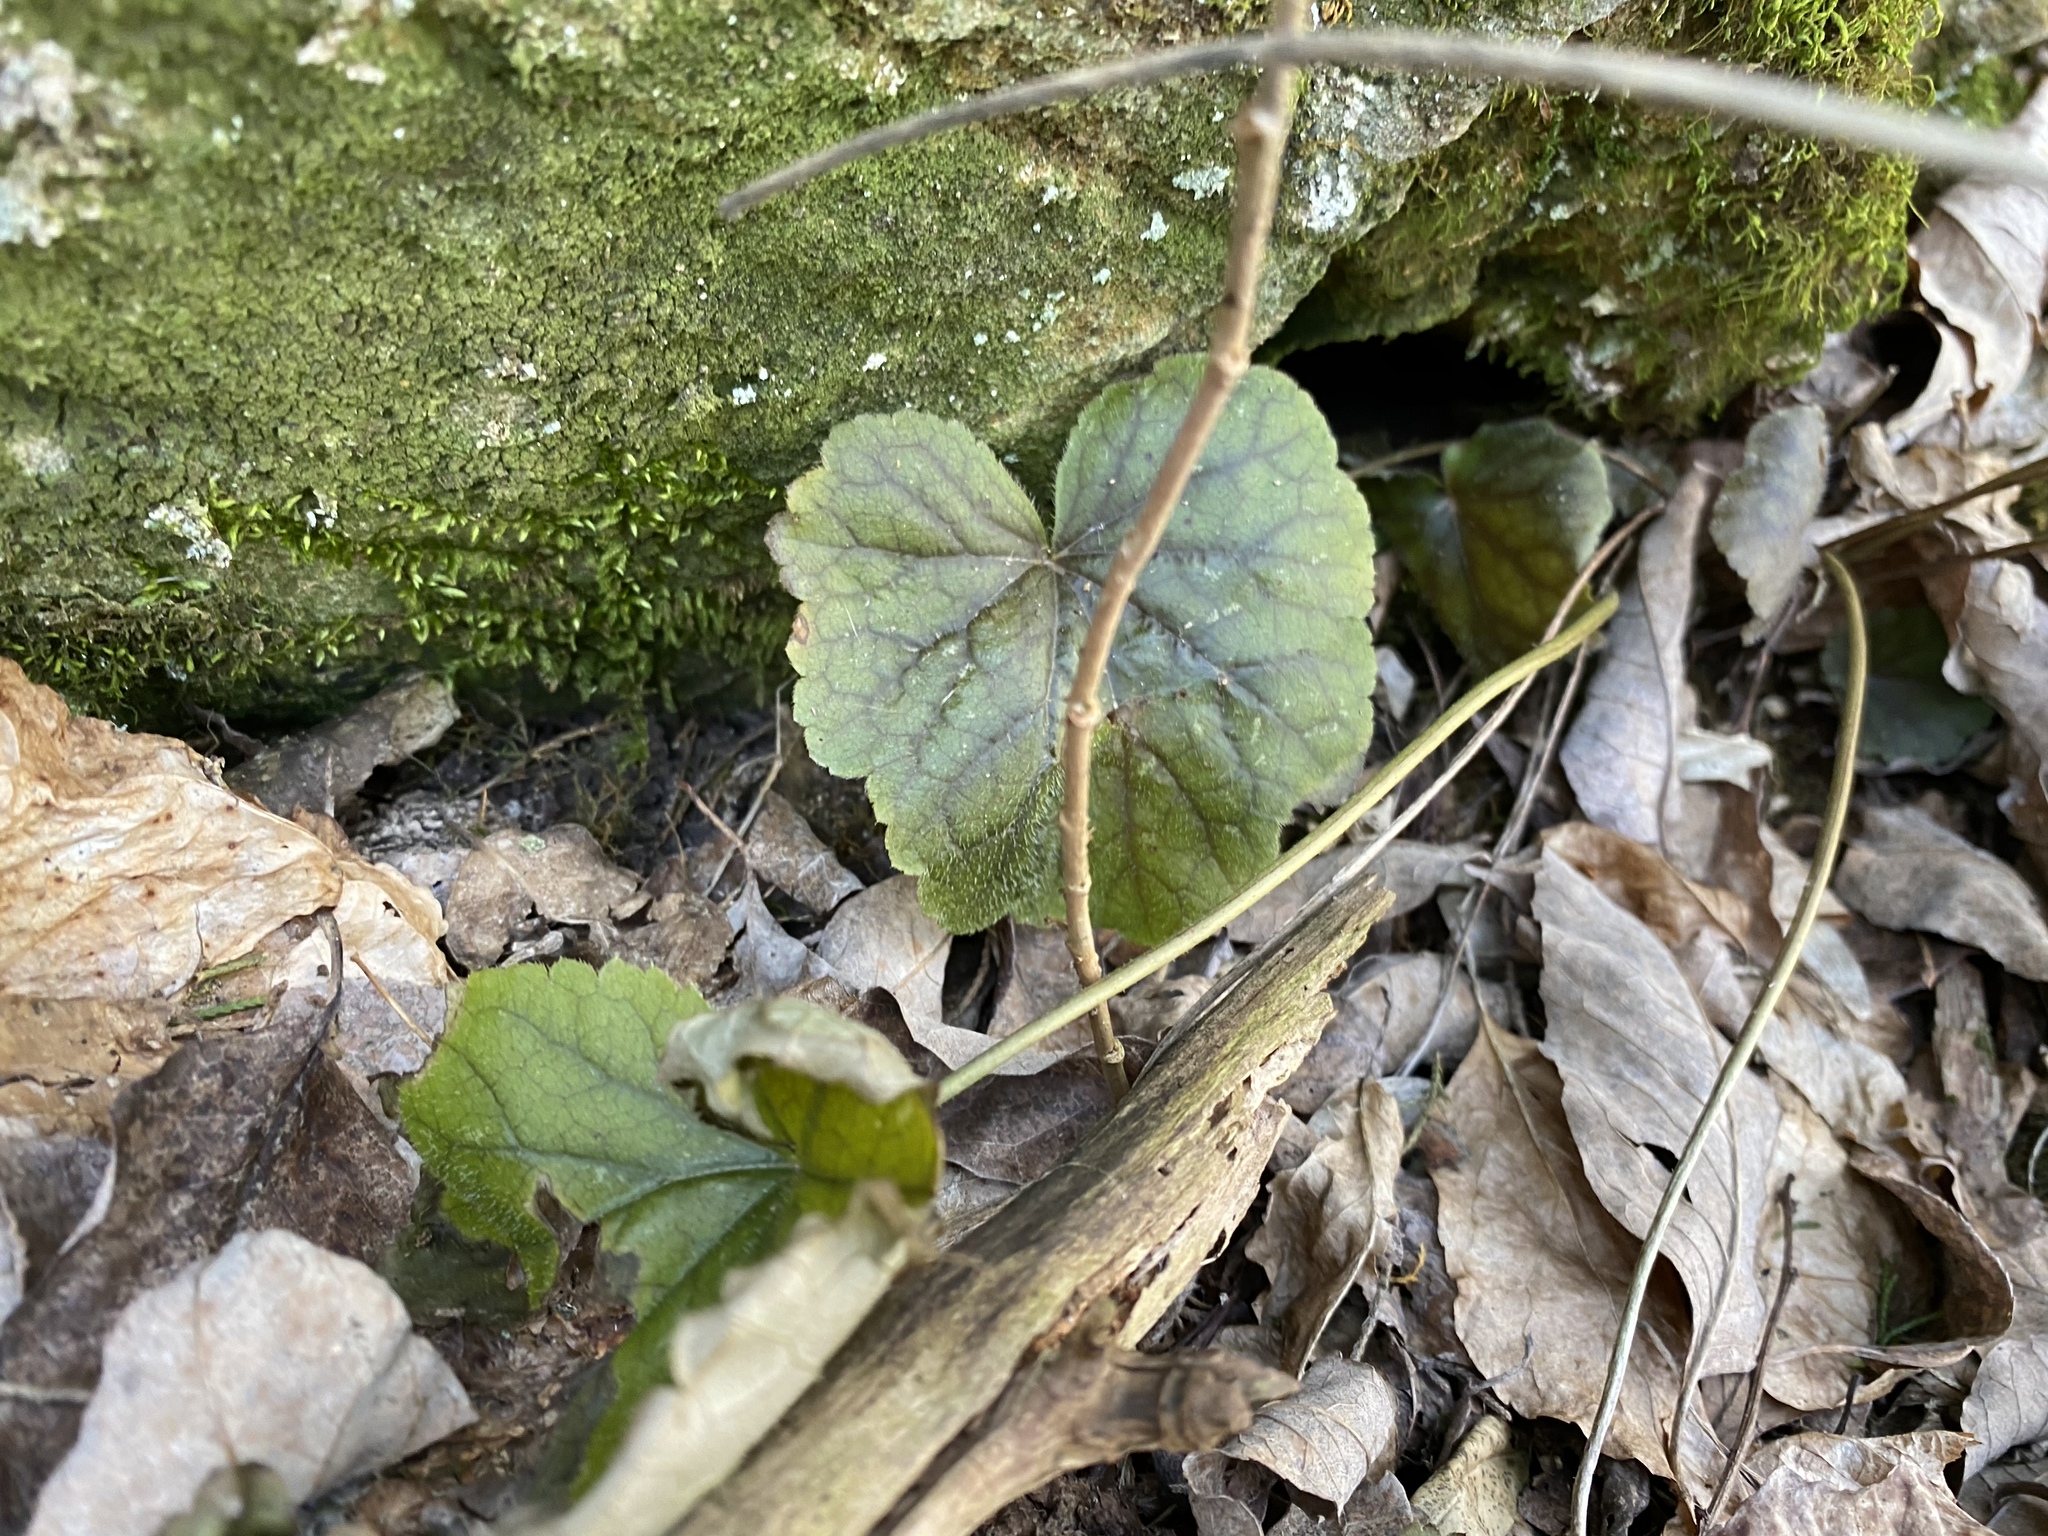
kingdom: Plantae
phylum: Tracheophyta
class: Magnoliopsida
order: Saxifragales
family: Saxifragaceae
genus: Heuchera
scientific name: Heuchera americana
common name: Alumroot
